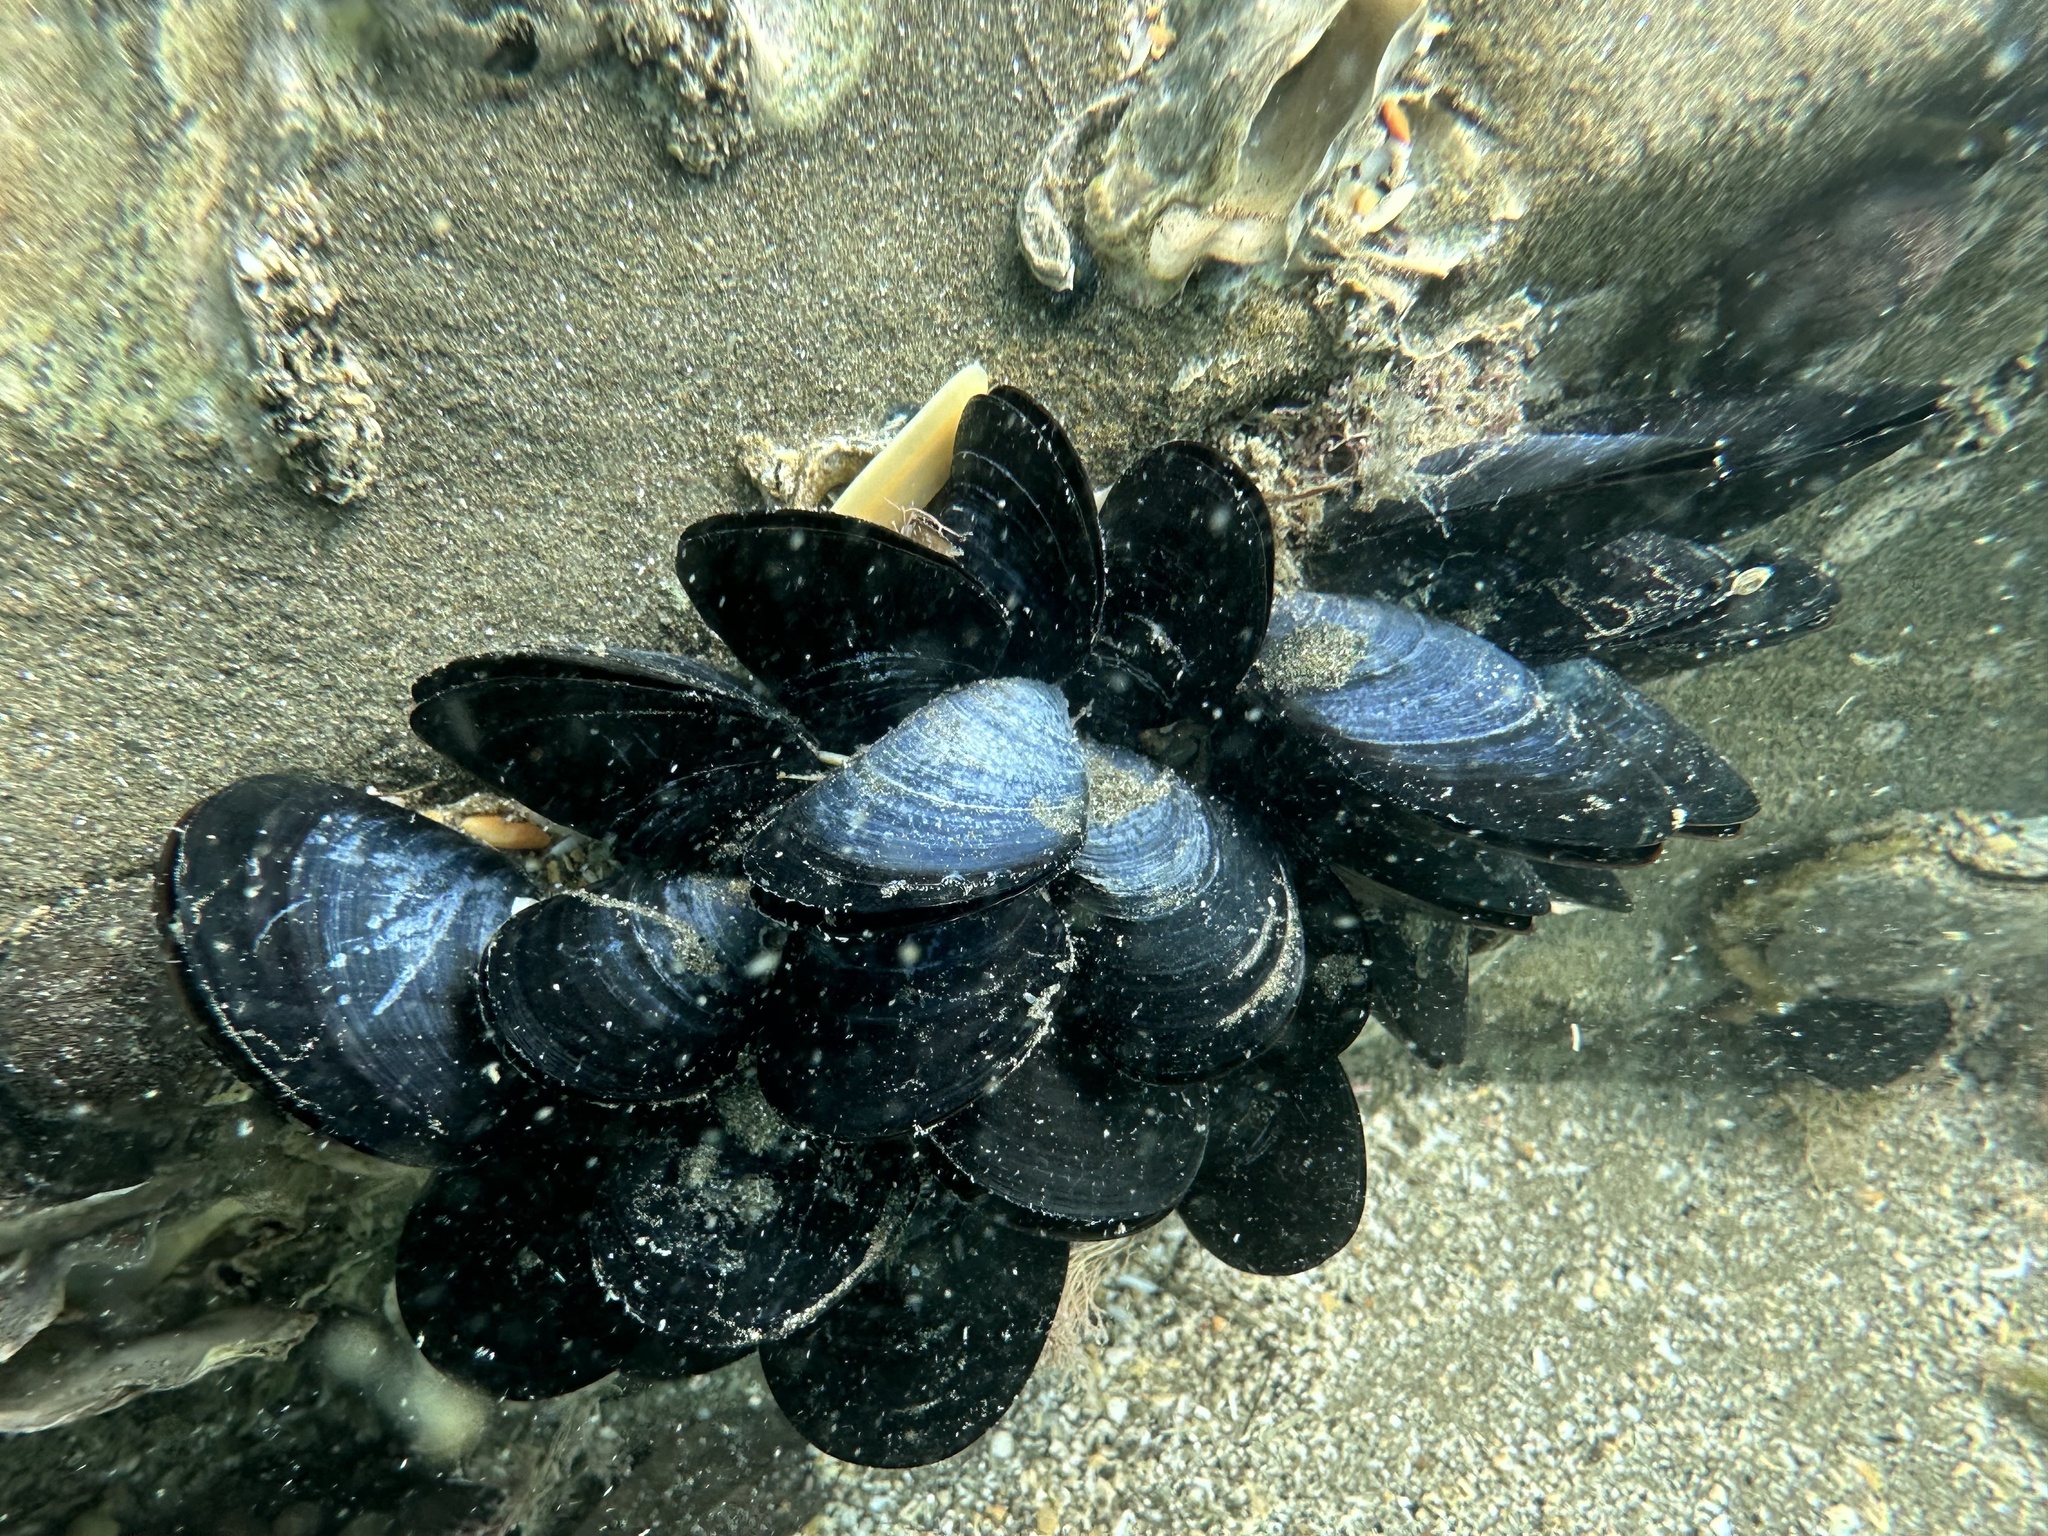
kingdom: Animalia
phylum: Mollusca
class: Bivalvia
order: Mytilida
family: Mytilidae
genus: Mytilus
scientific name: Mytilus planulatus
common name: Australian mussel
